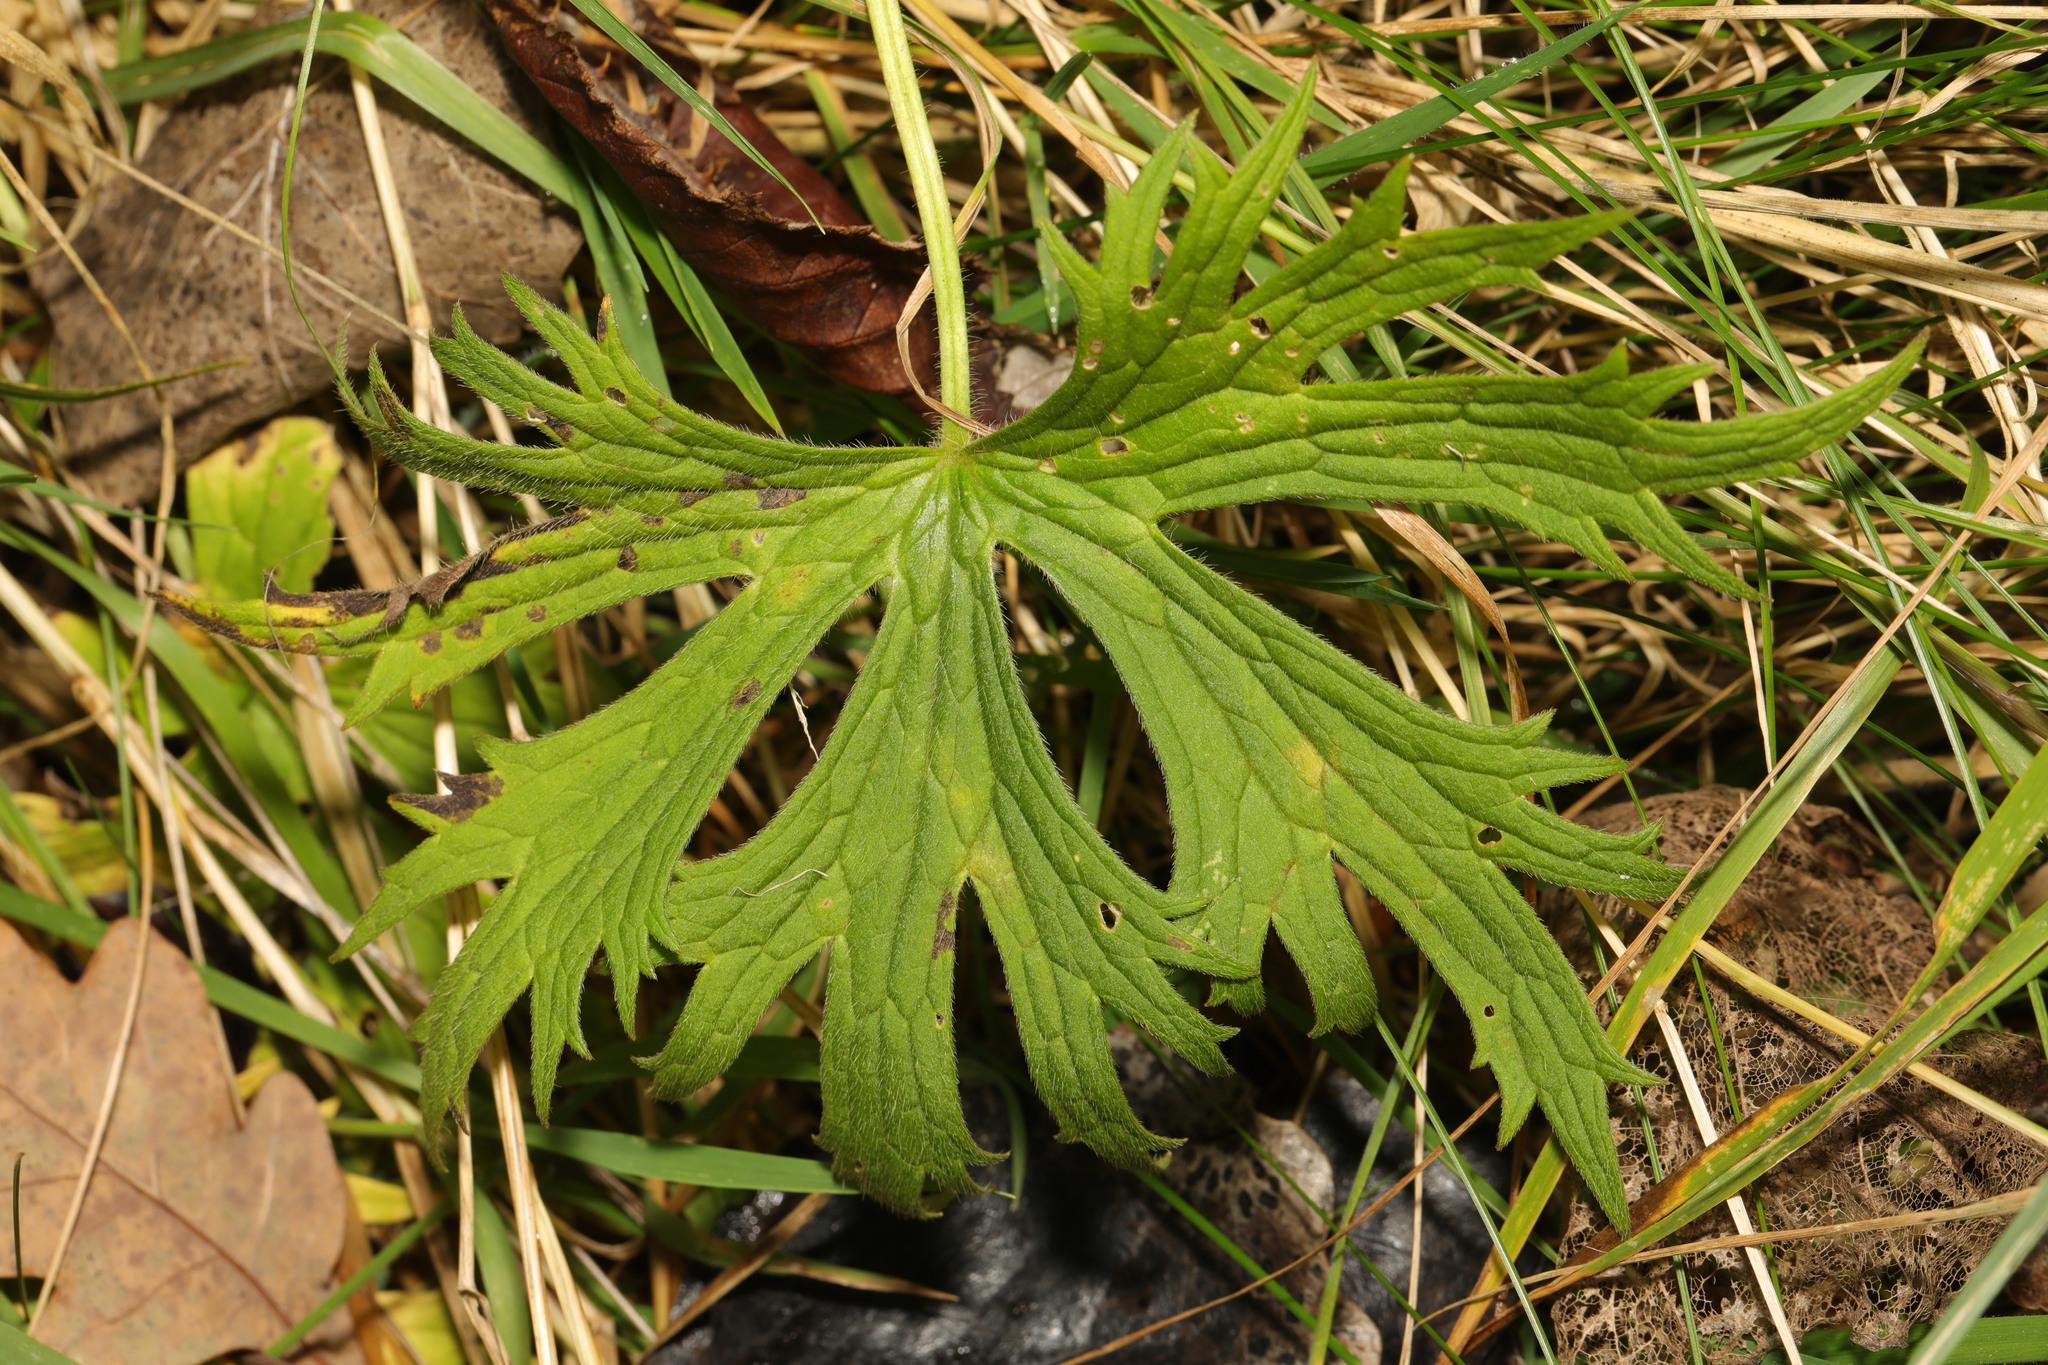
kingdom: Plantae
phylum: Tracheophyta
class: Magnoliopsida
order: Ranunculales
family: Ranunculaceae
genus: Ranunculus
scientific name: Ranunculus acris
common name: Meadow buttercup
